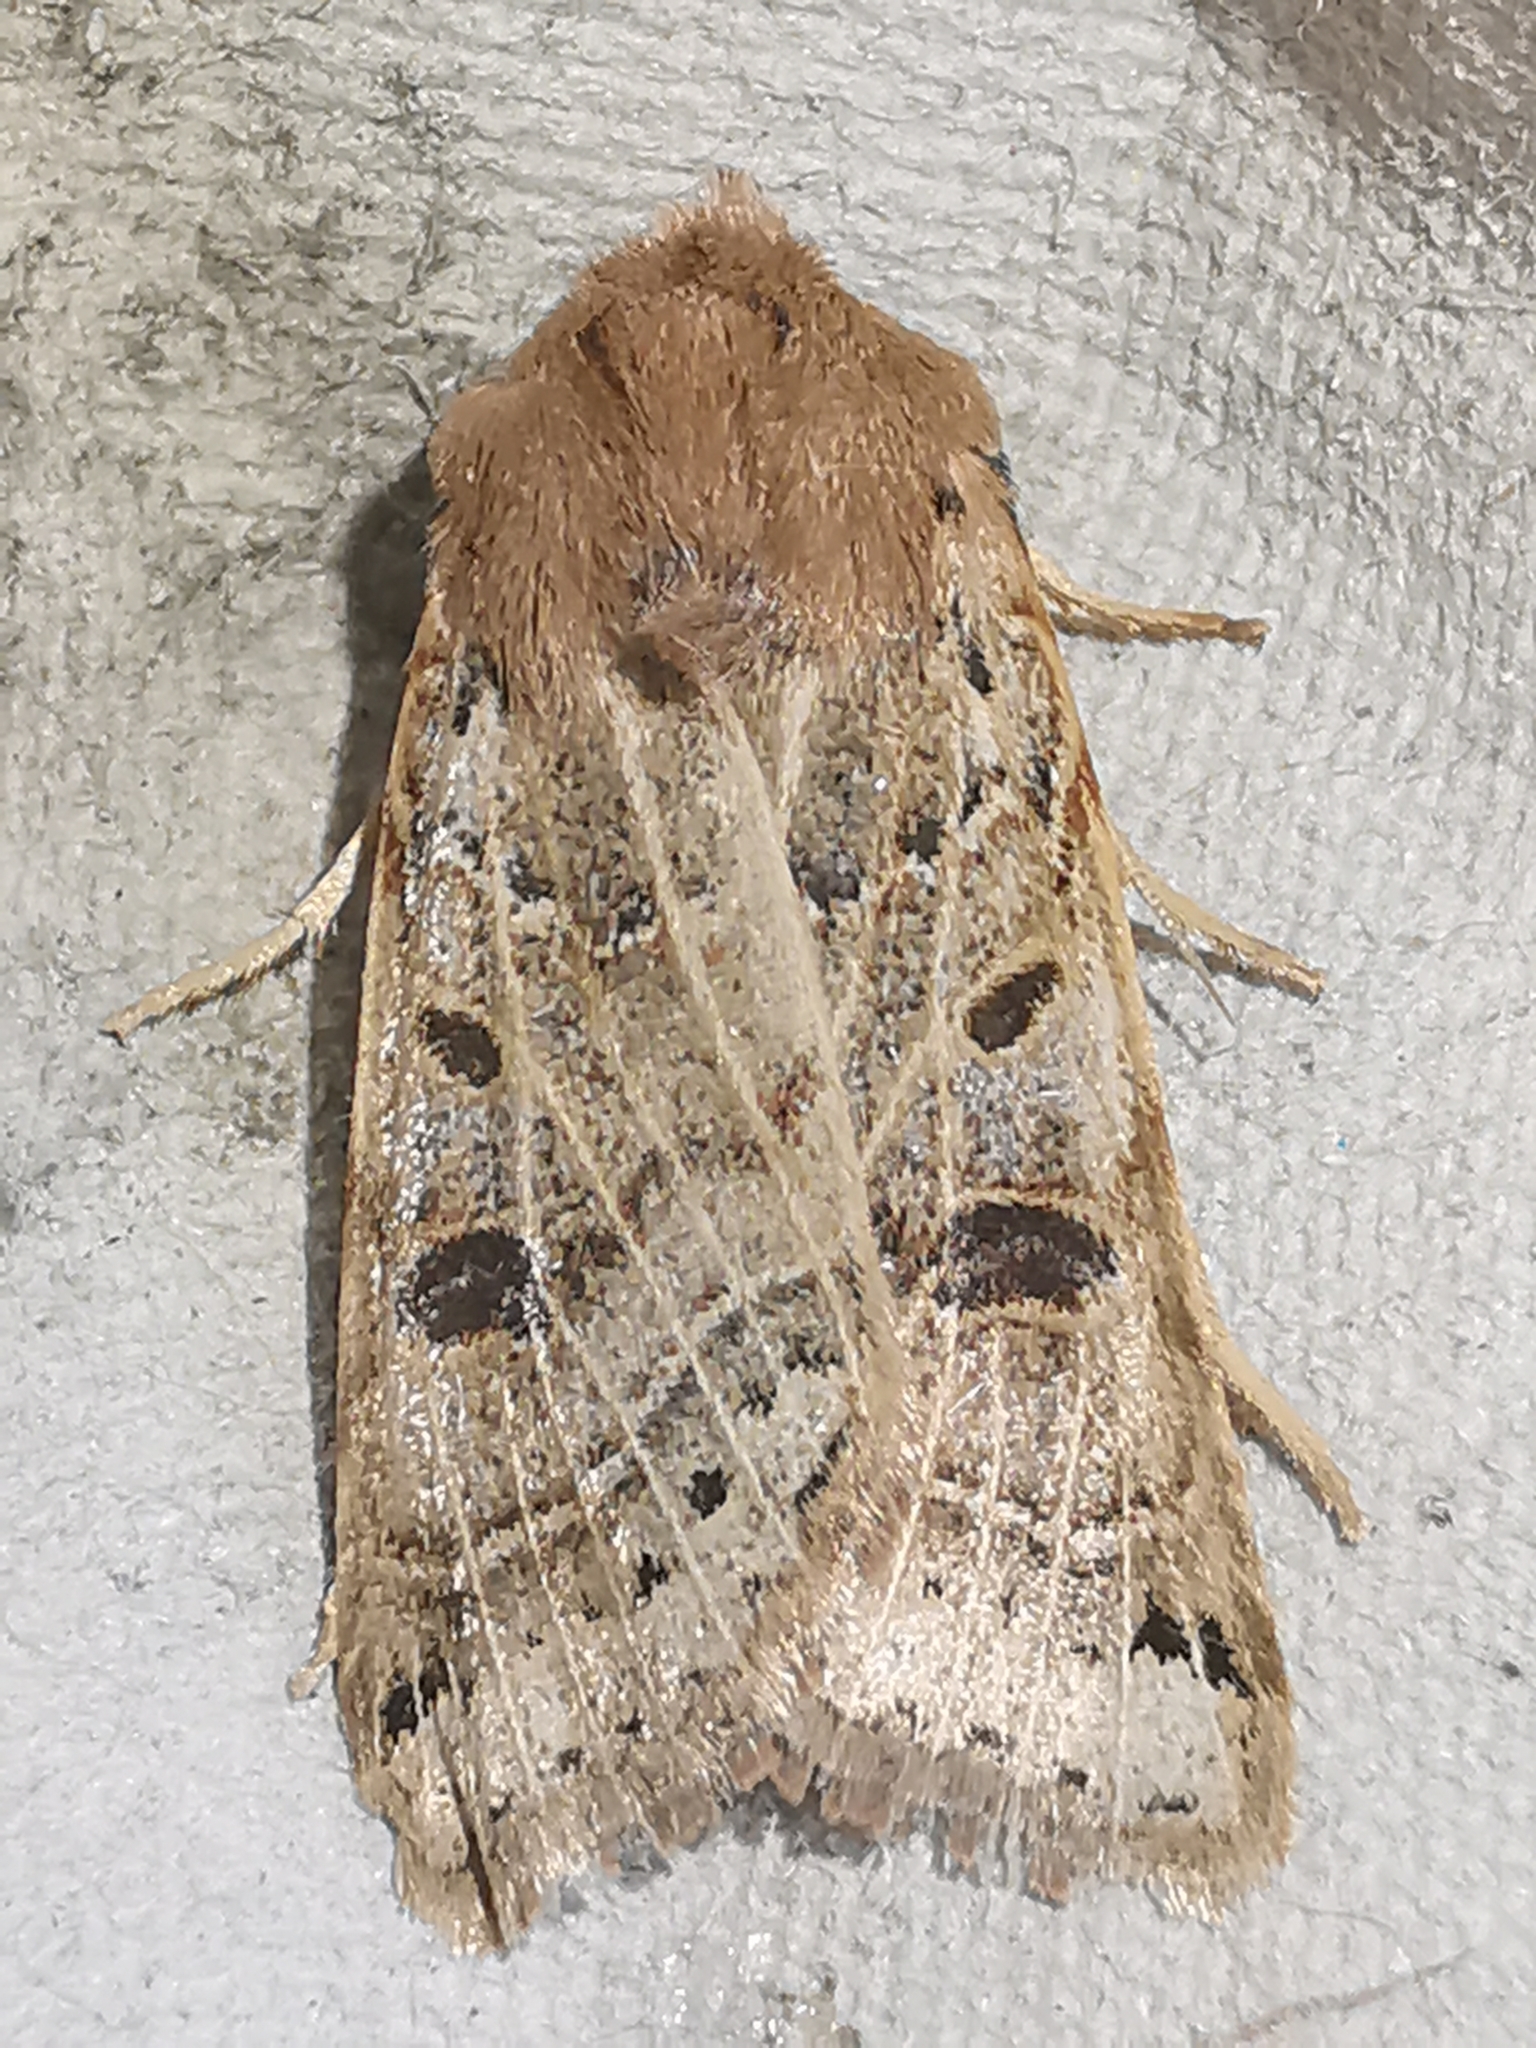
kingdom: Animalia
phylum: Arthropoda
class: Insecta
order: Lepidoptera
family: Noctuidae
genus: Agrochola
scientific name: Agrochola lunosa
